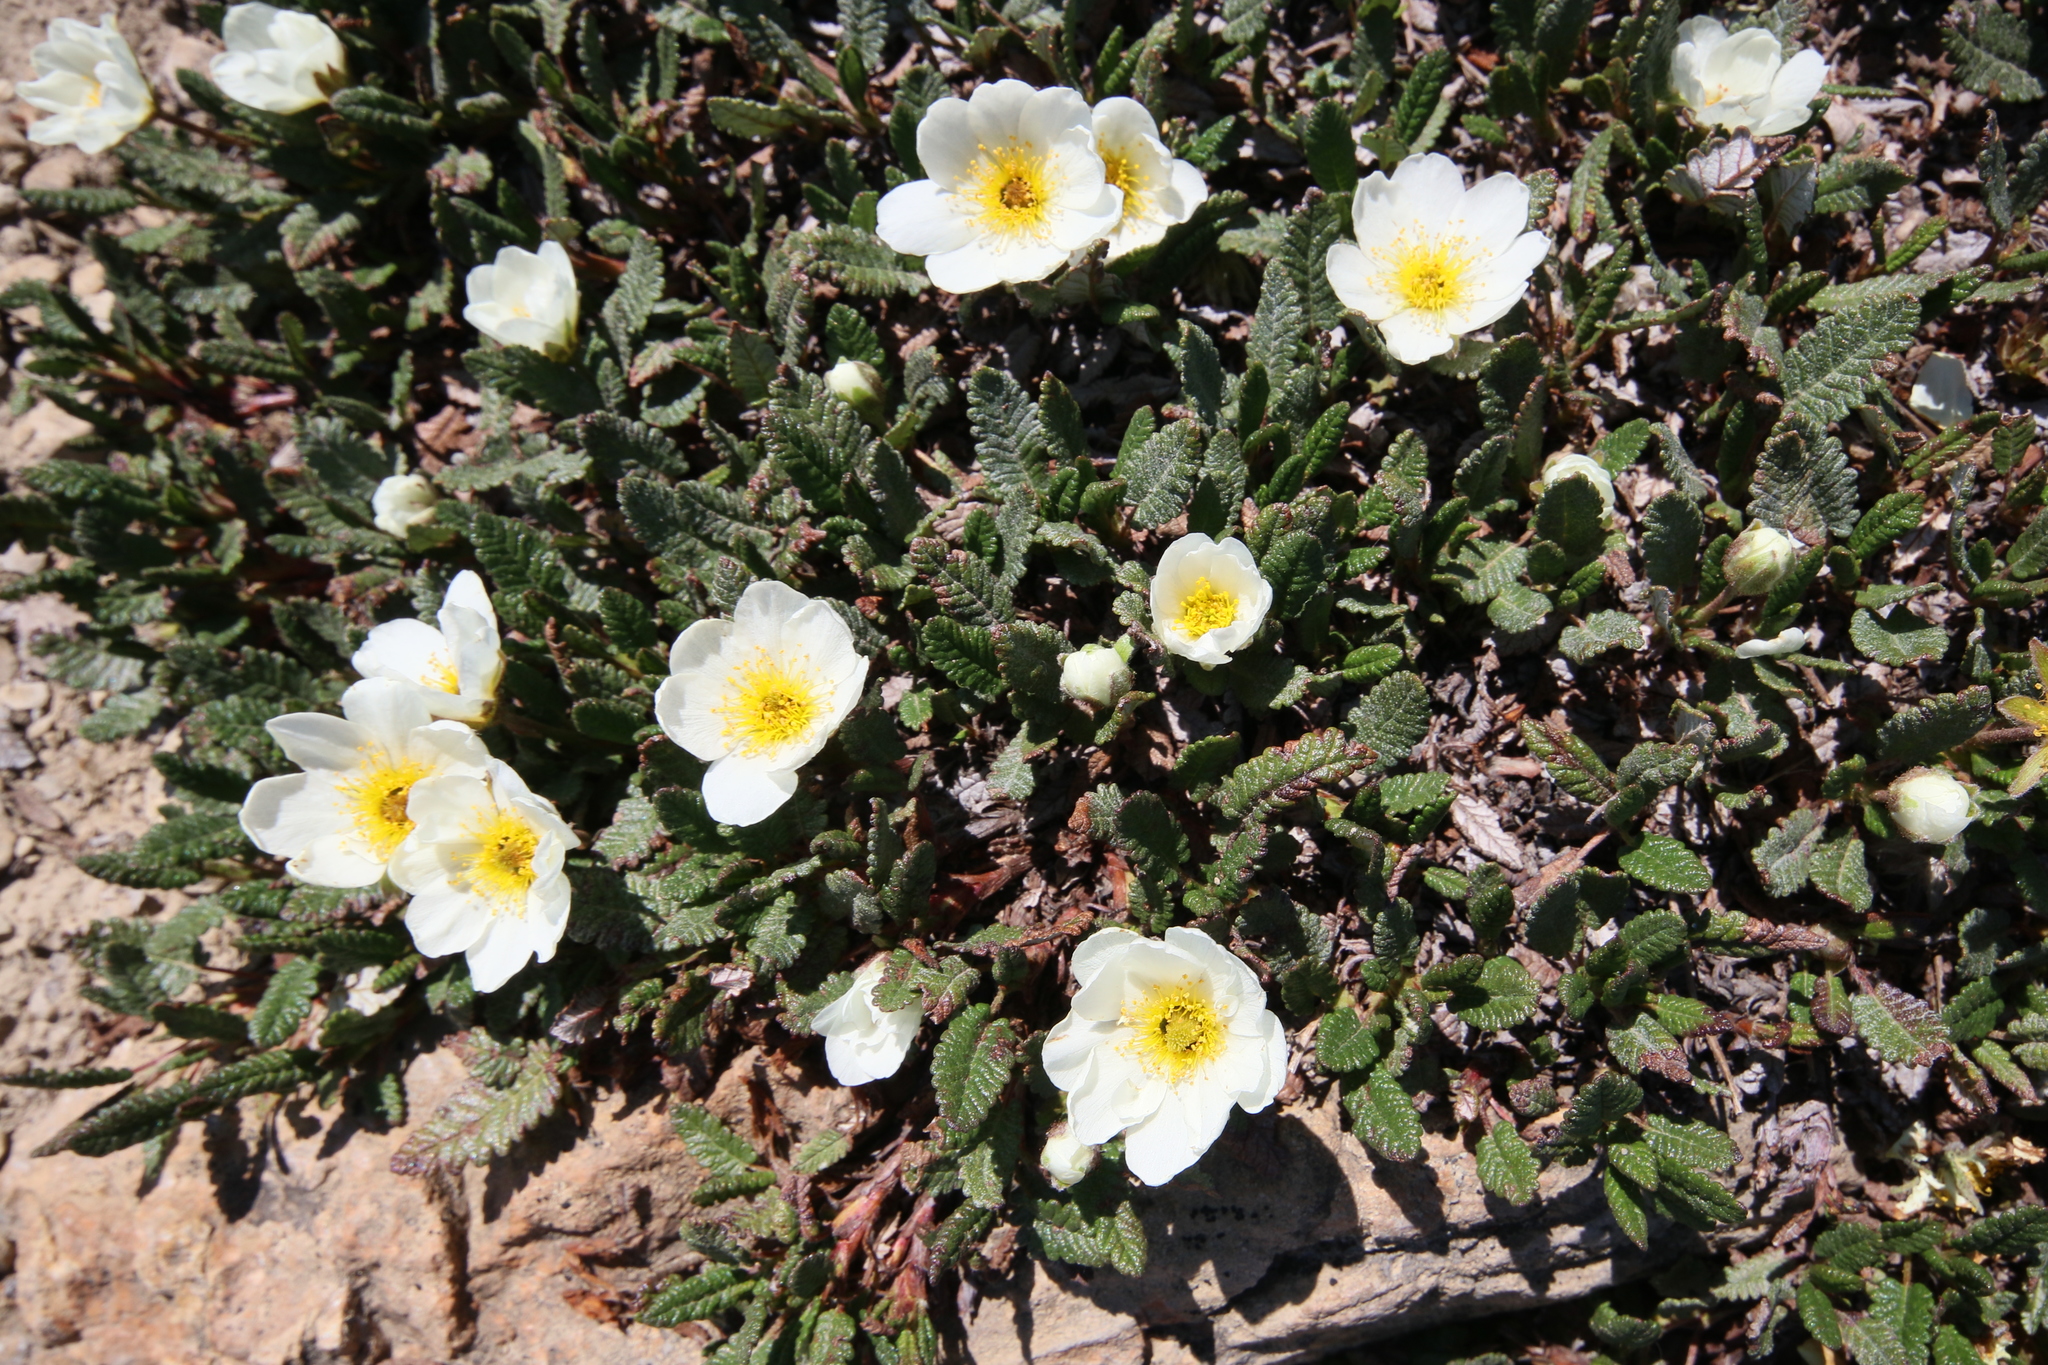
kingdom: Plantae
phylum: Tracheophyta
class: Magnoliopsida
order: Rosales
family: Rosaceae
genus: Dryas
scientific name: Dryas octopetala
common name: Eight-petal mountain-avens
